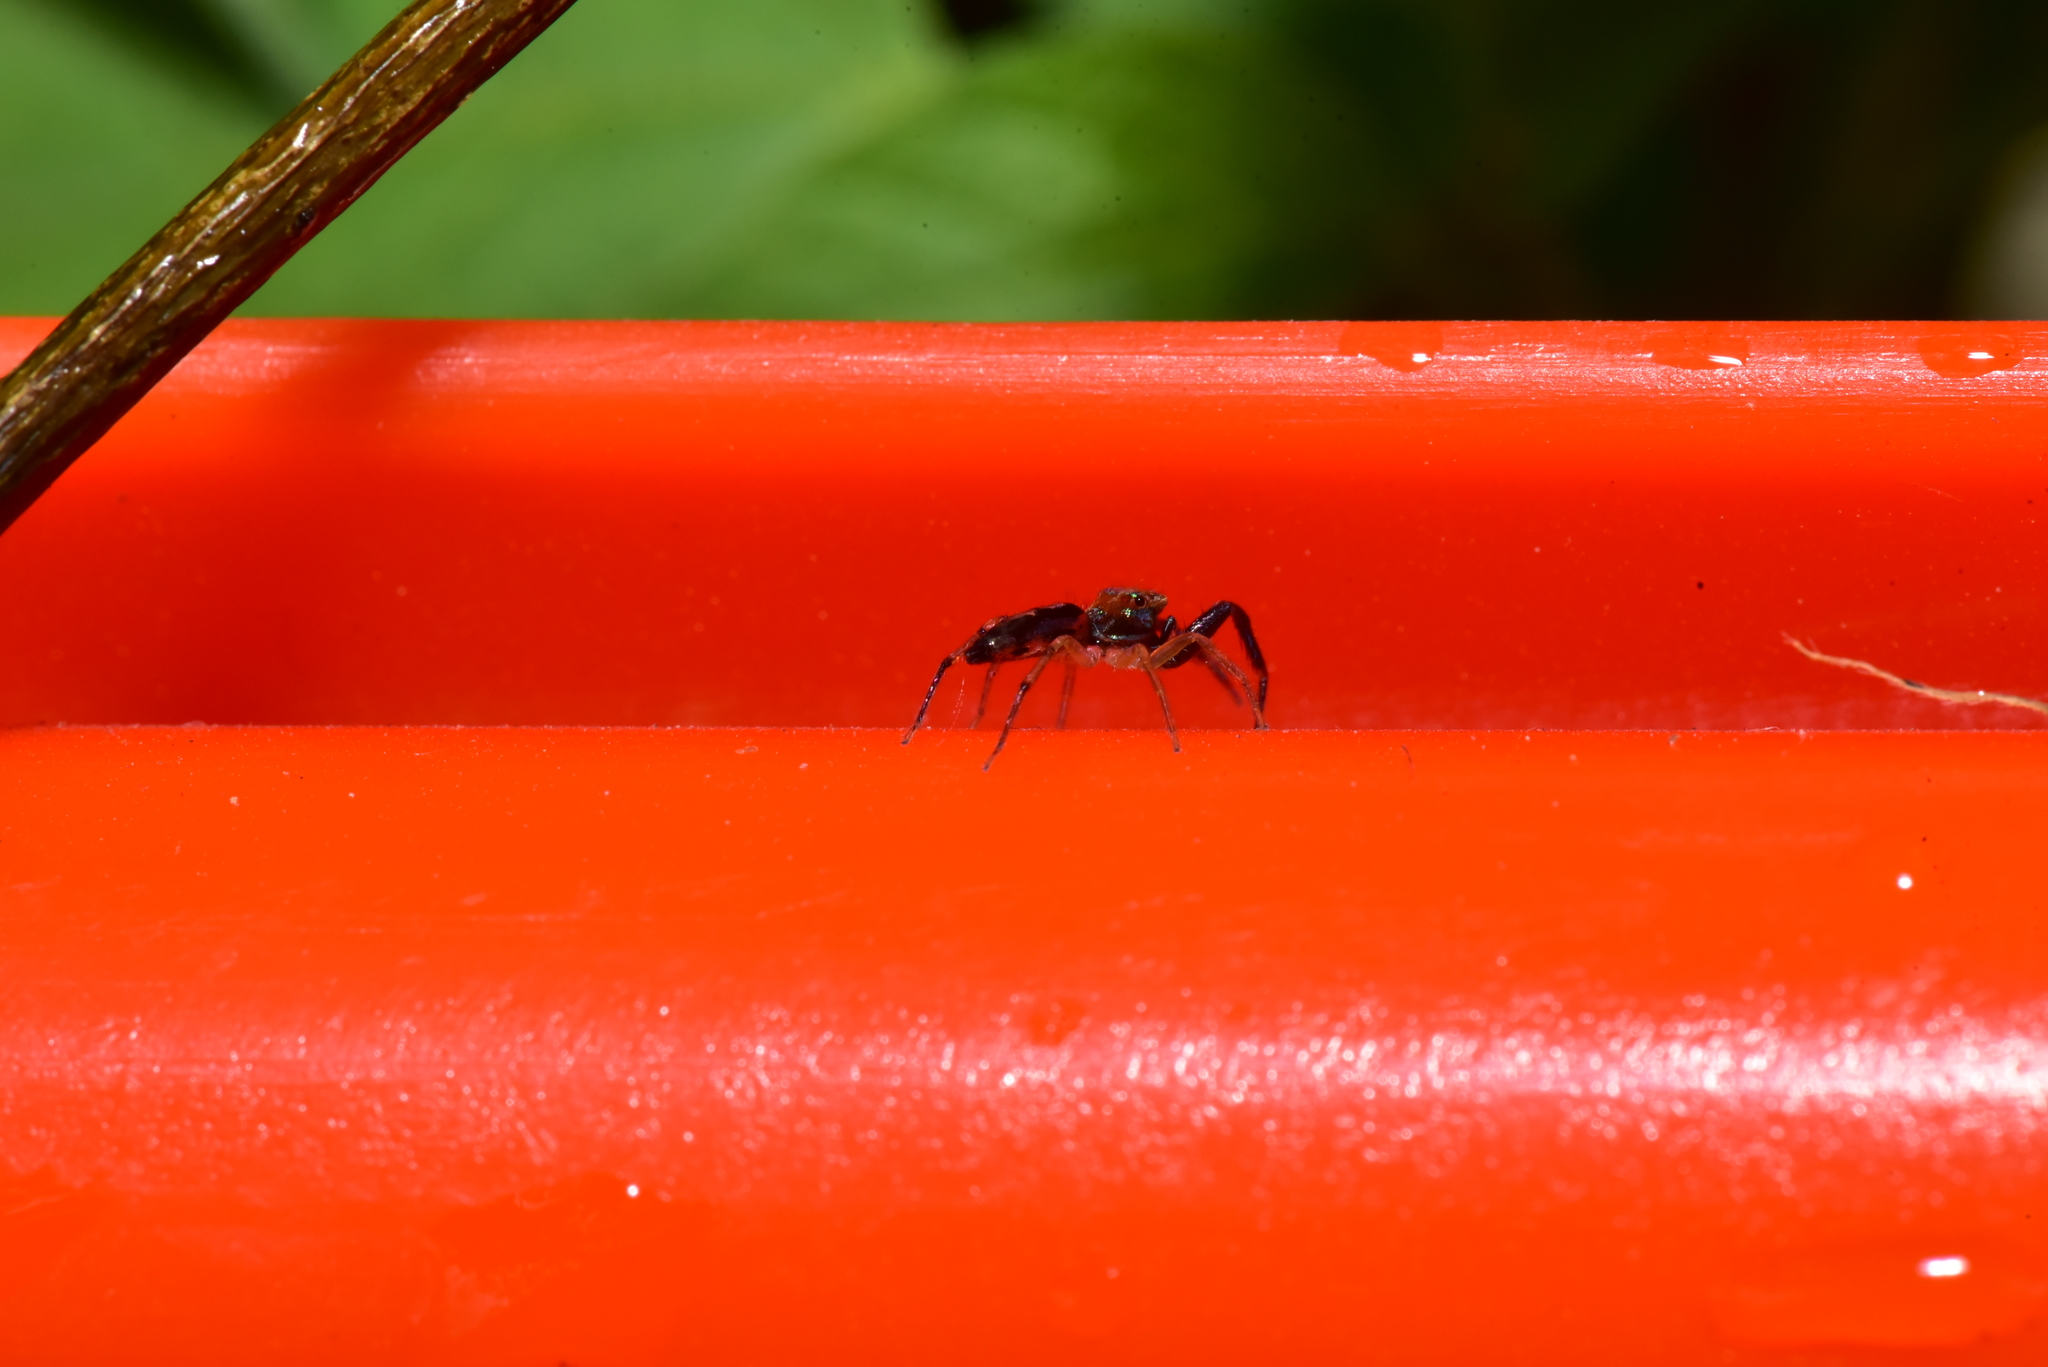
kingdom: Animalia
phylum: Arthropoda
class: Arachnida
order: Araneae
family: Salticidae
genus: Zebraplatys
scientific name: Zebraplatys bulbus
